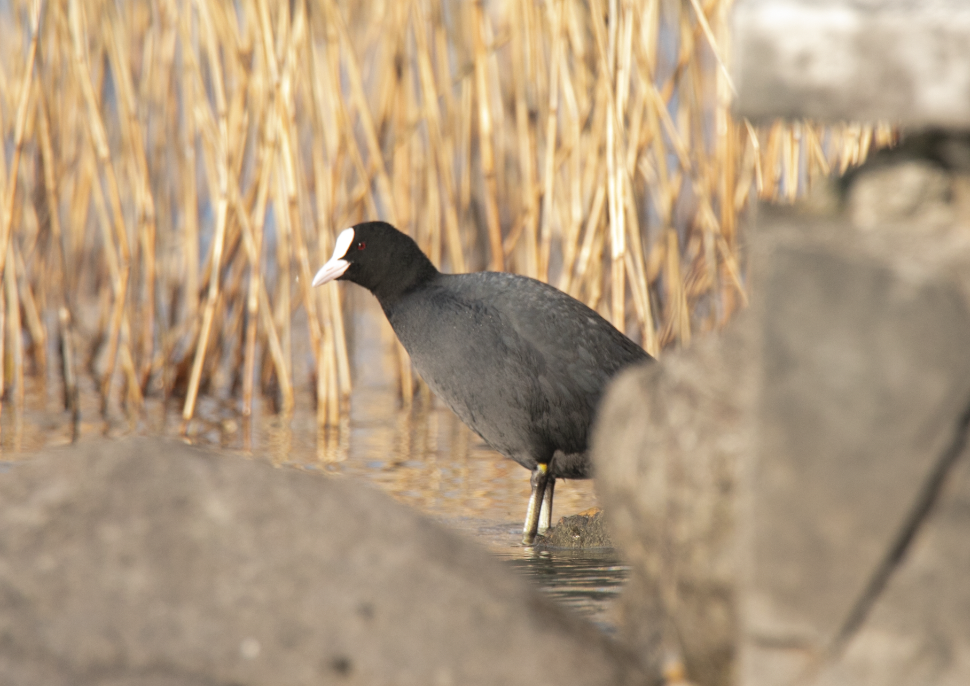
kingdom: Animalia
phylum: Chordata
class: Aves
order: Gruiformes
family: Rallidae
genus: Fulica
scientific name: Fulica atra
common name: Eurasian coot
